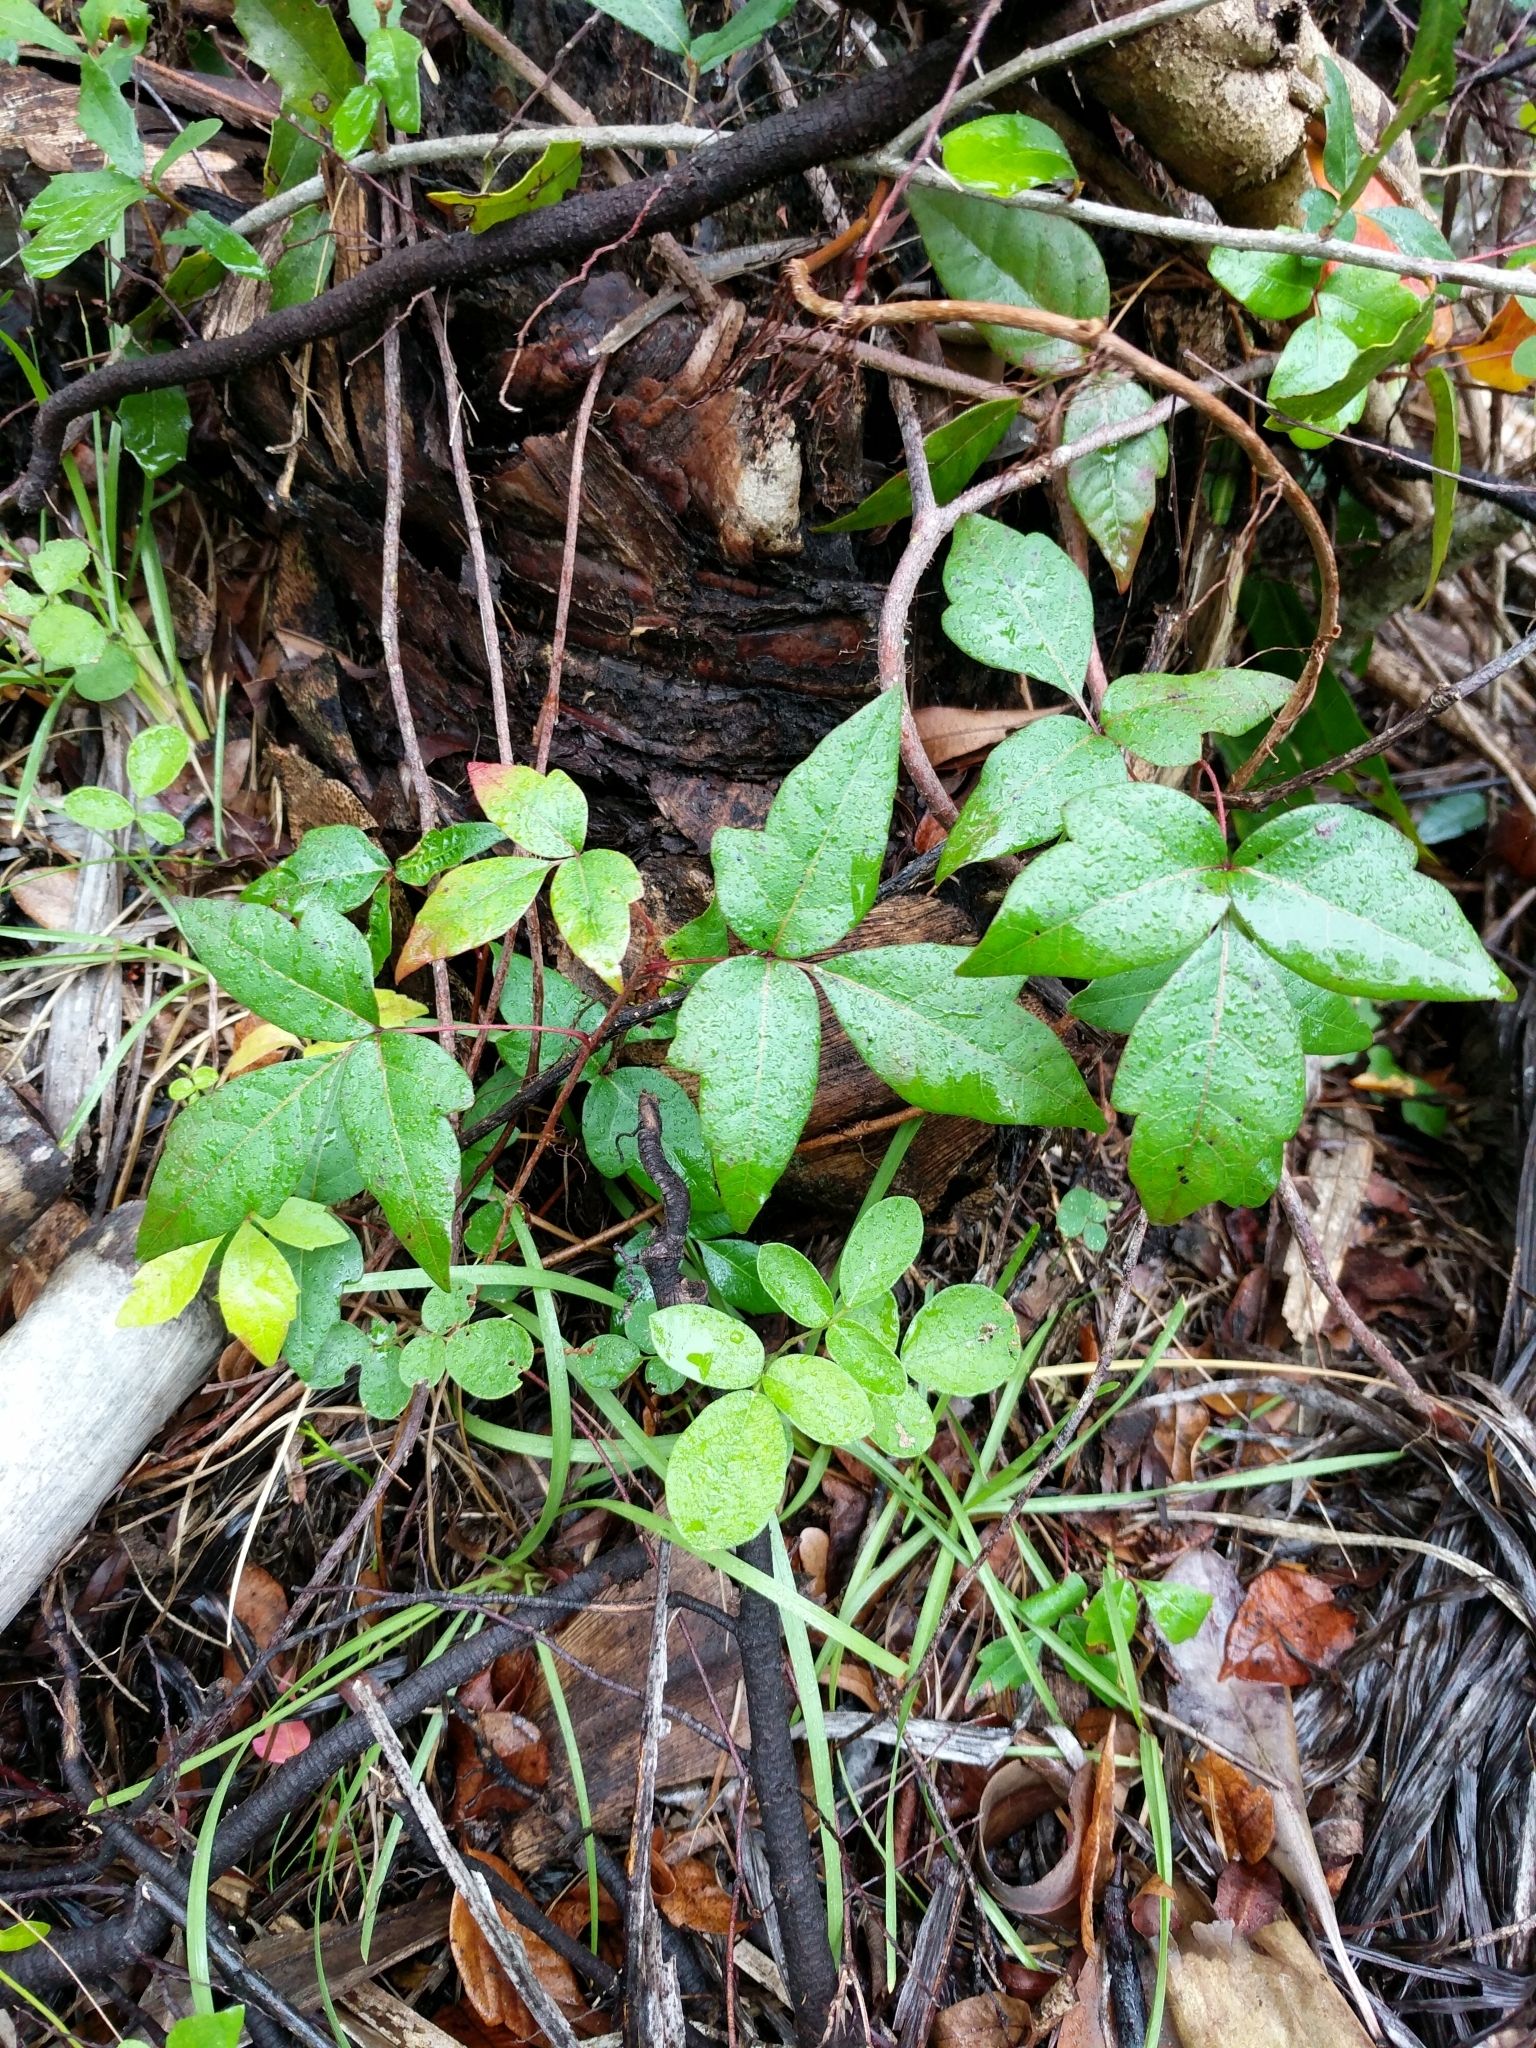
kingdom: Plantae
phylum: Tracheophyta
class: Magnoliopsida
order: Sapindales
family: Anacardiaceae
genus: Toxicodendron
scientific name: Toxicodendron radicans
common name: Poison ivy
